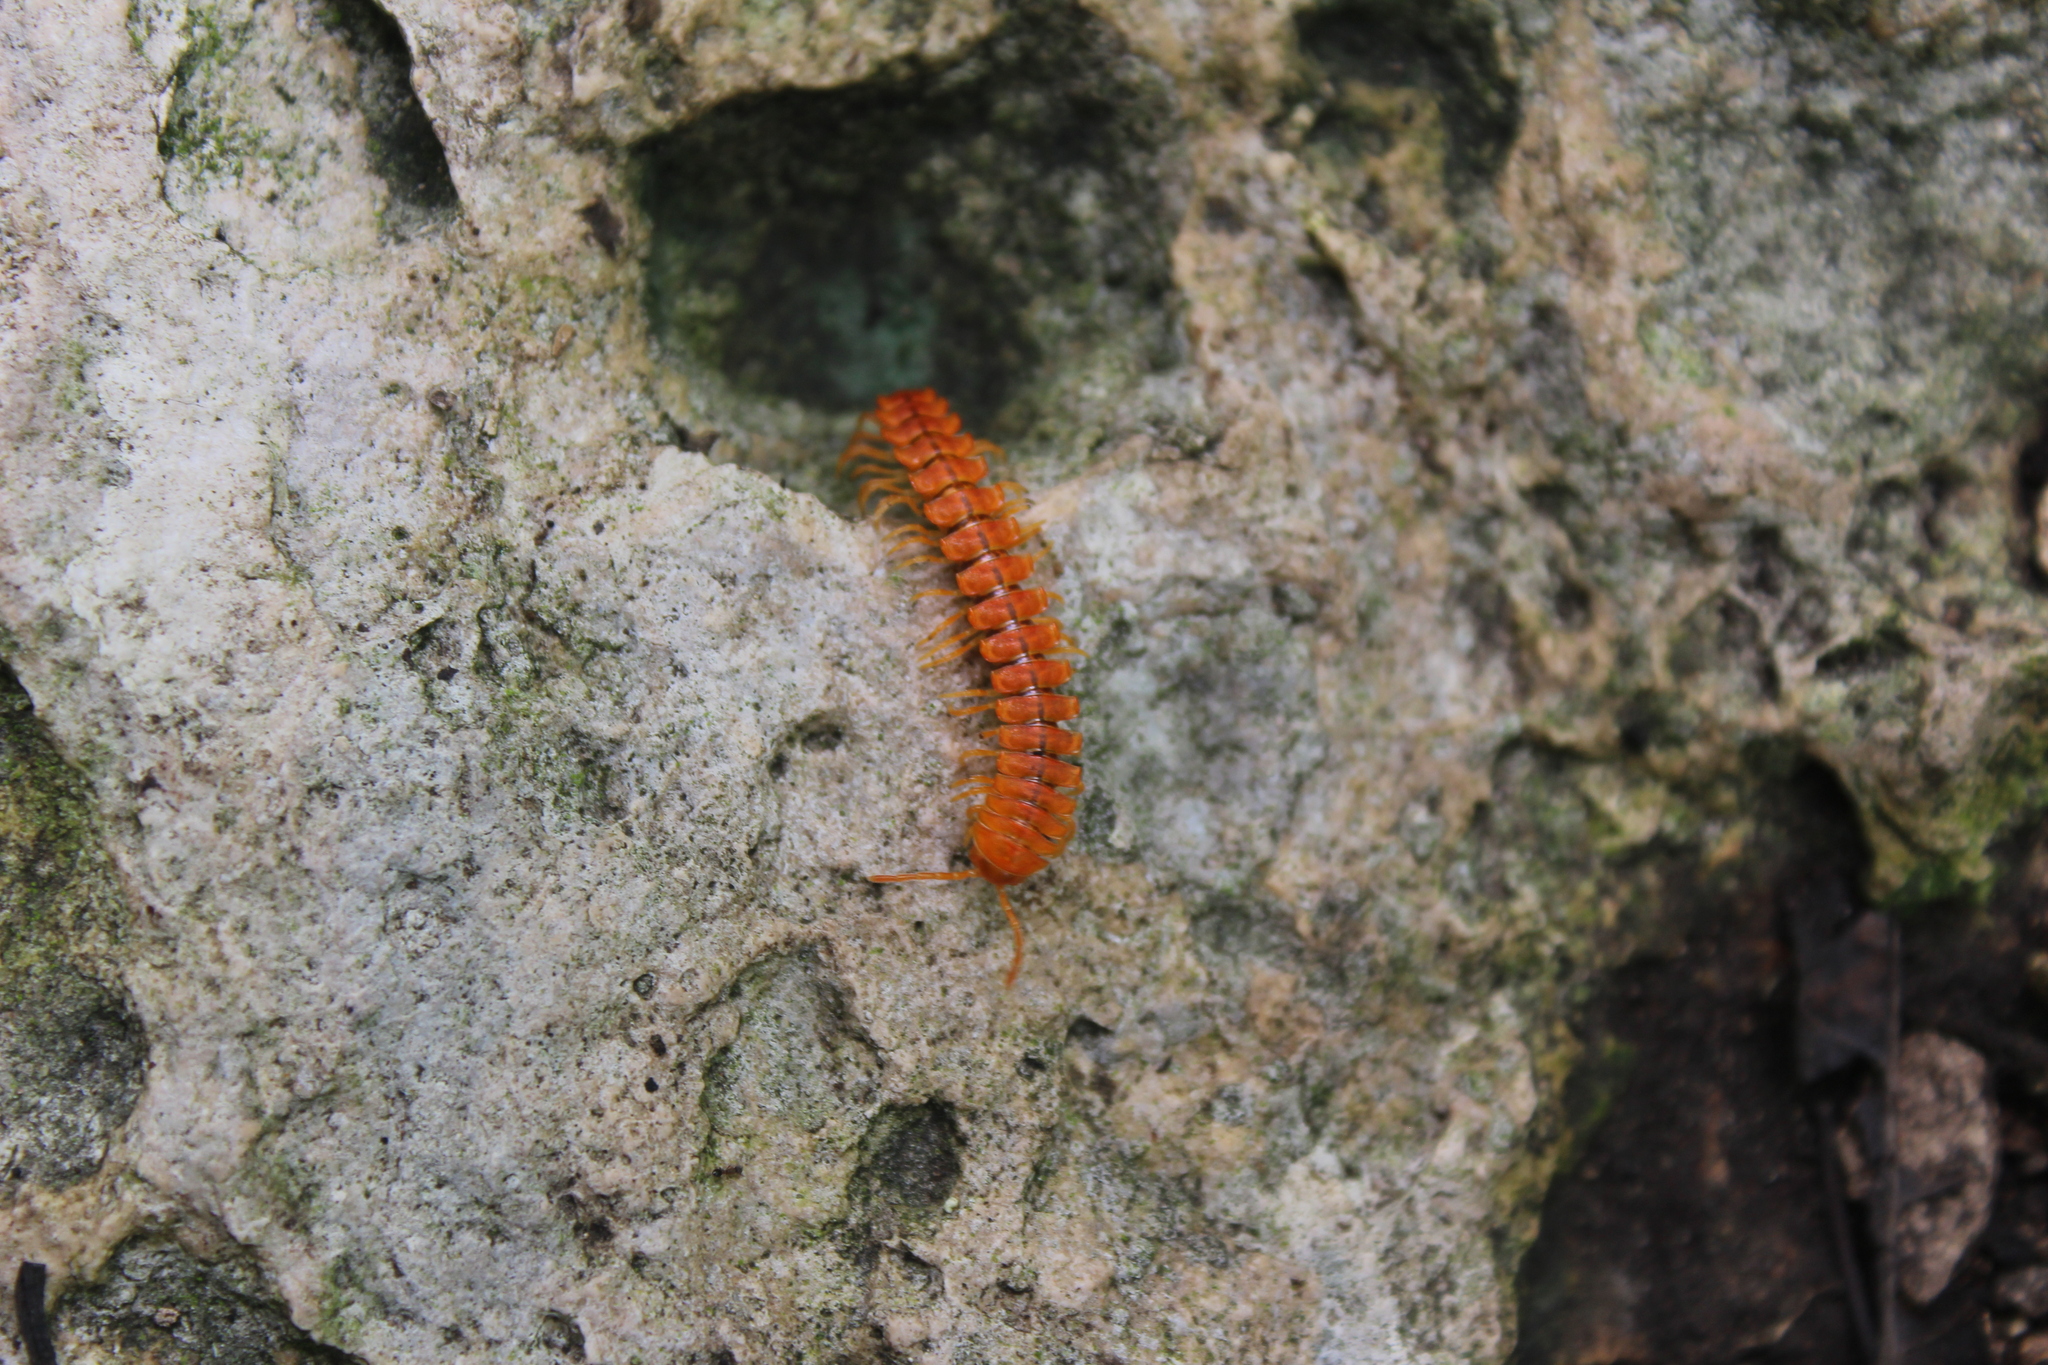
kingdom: Animalia
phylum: Arthropoda
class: Diplopoda
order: Polydesmida
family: Rhachodesmidae
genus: Aceratophallus
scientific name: Aceratophallus maya
